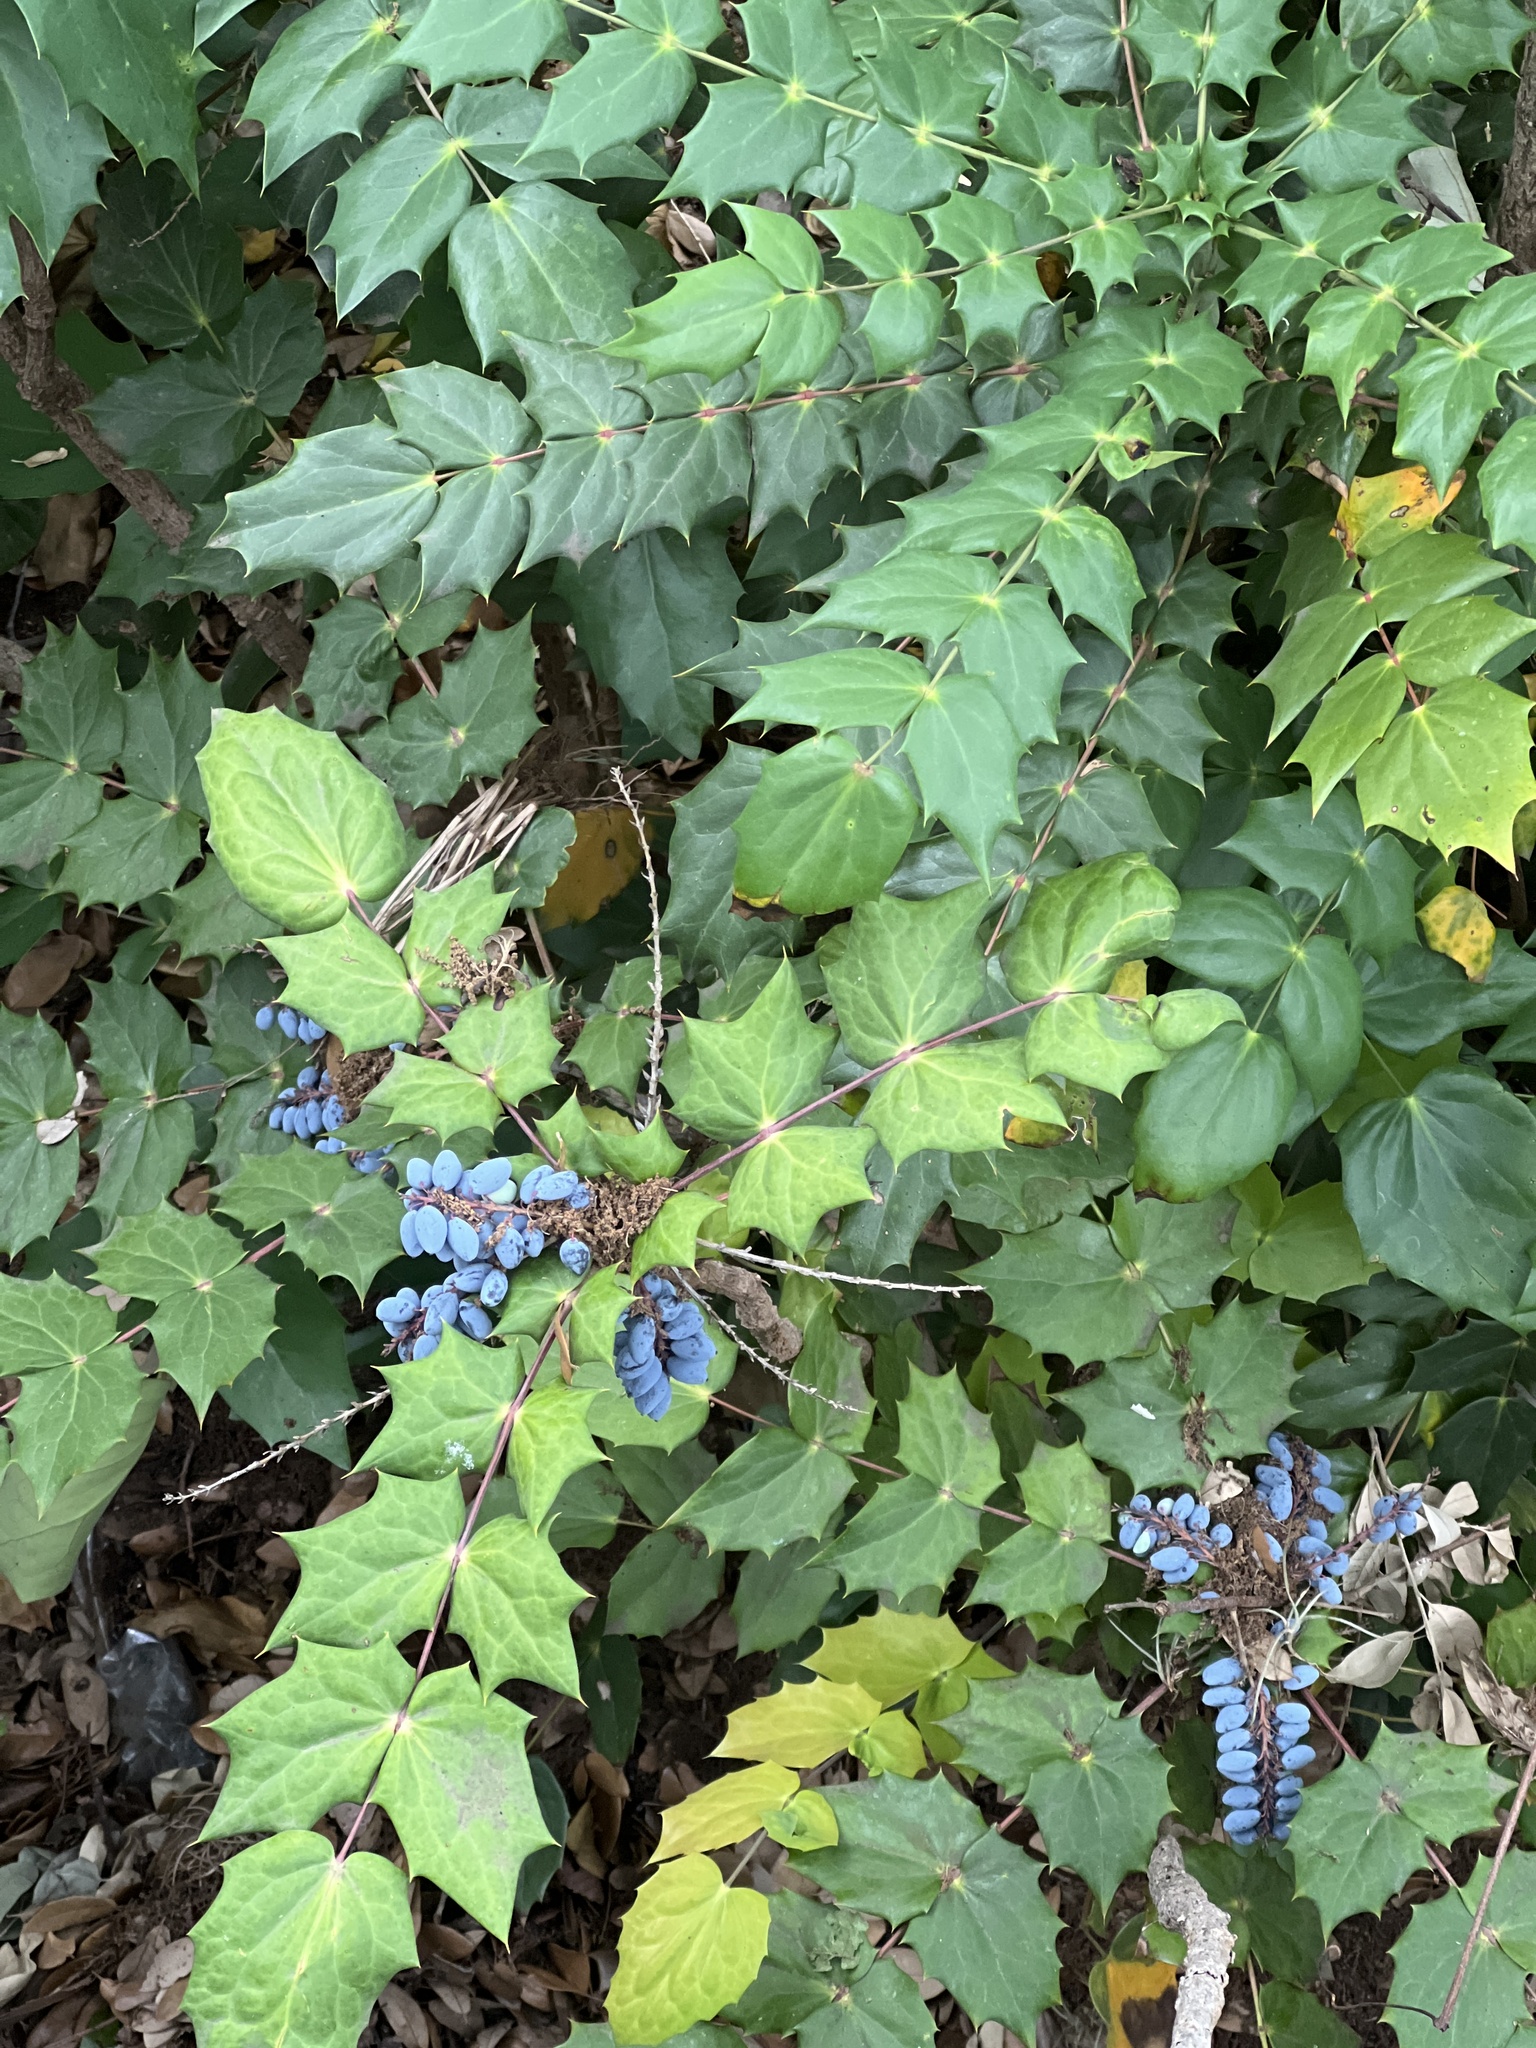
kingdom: Plantae
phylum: Tracheophyta
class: Magnoliopsida
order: Ranunculales
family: Berberidaceae
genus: Mahonia
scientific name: Mahonia bealei
